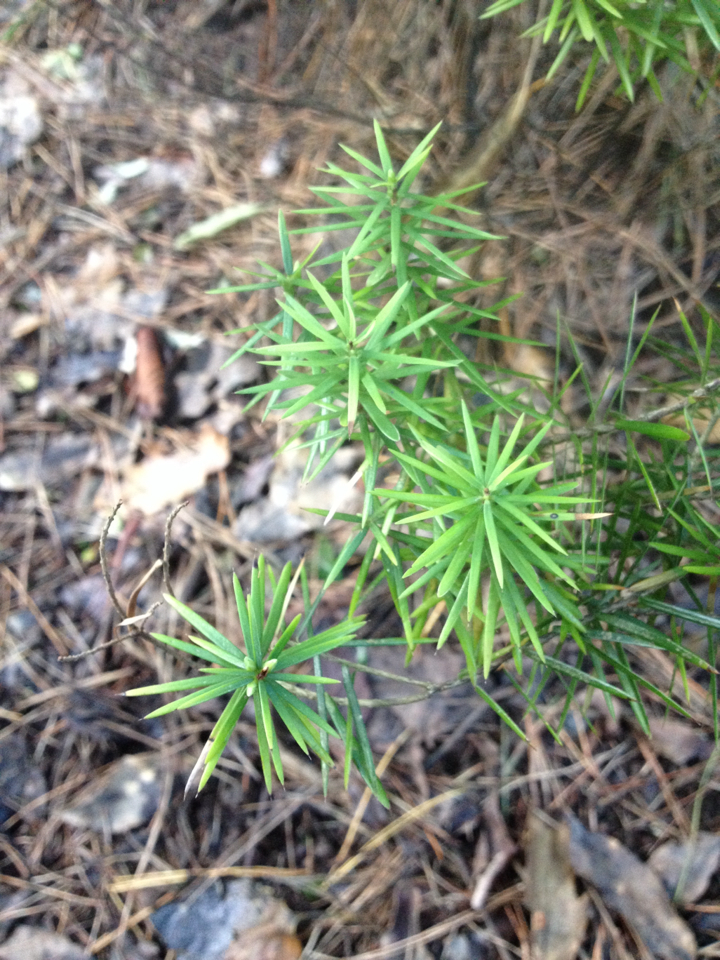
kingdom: Plantae
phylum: Tracheophyta
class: Magnoliopsida
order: Ericales
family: Ericaceae
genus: Leptecophylla
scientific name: Leptecophylla juniperina
